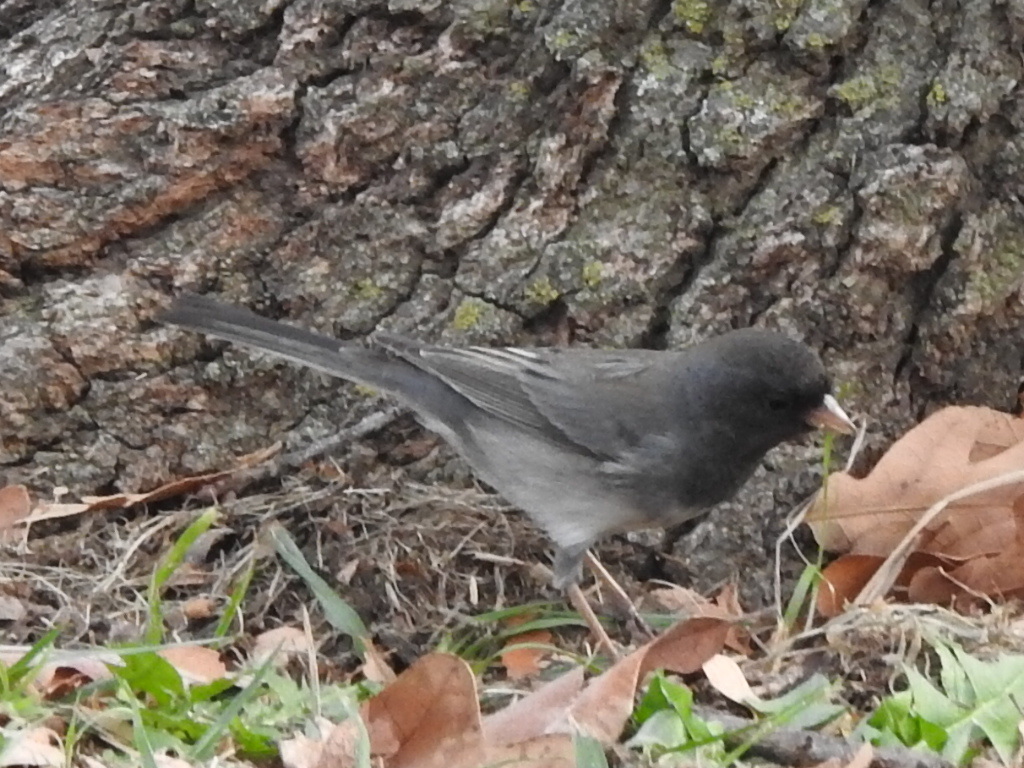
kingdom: Animalia
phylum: Chordata
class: Aves
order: Passeriformes
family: Passerellidae
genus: Junco
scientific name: Junco hyemalis
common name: Dark-eyed junco
